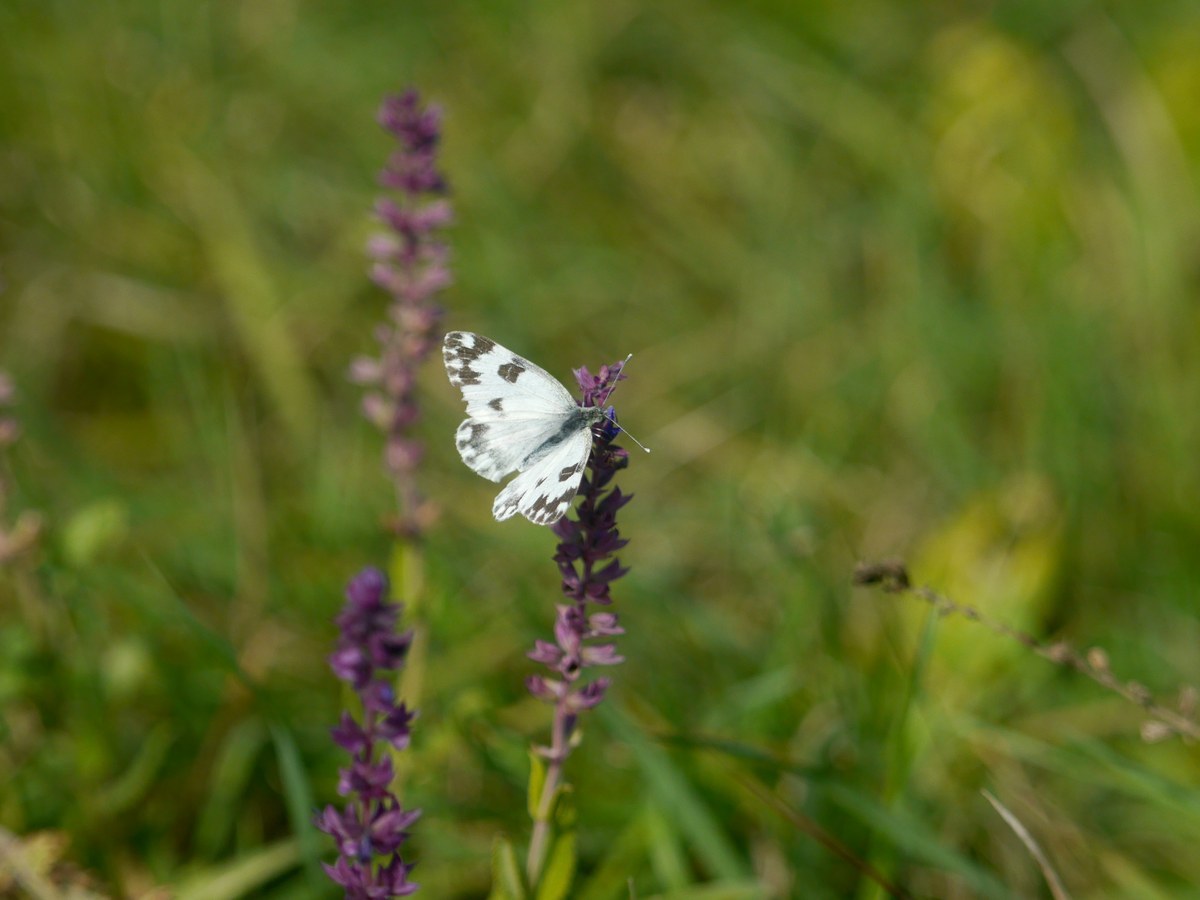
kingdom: Animalia
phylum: Arthropoda
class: Insecta
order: Lepidoptera
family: Pieridae
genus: Pontia
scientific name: Pontia edusa
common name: Eastern bath white
